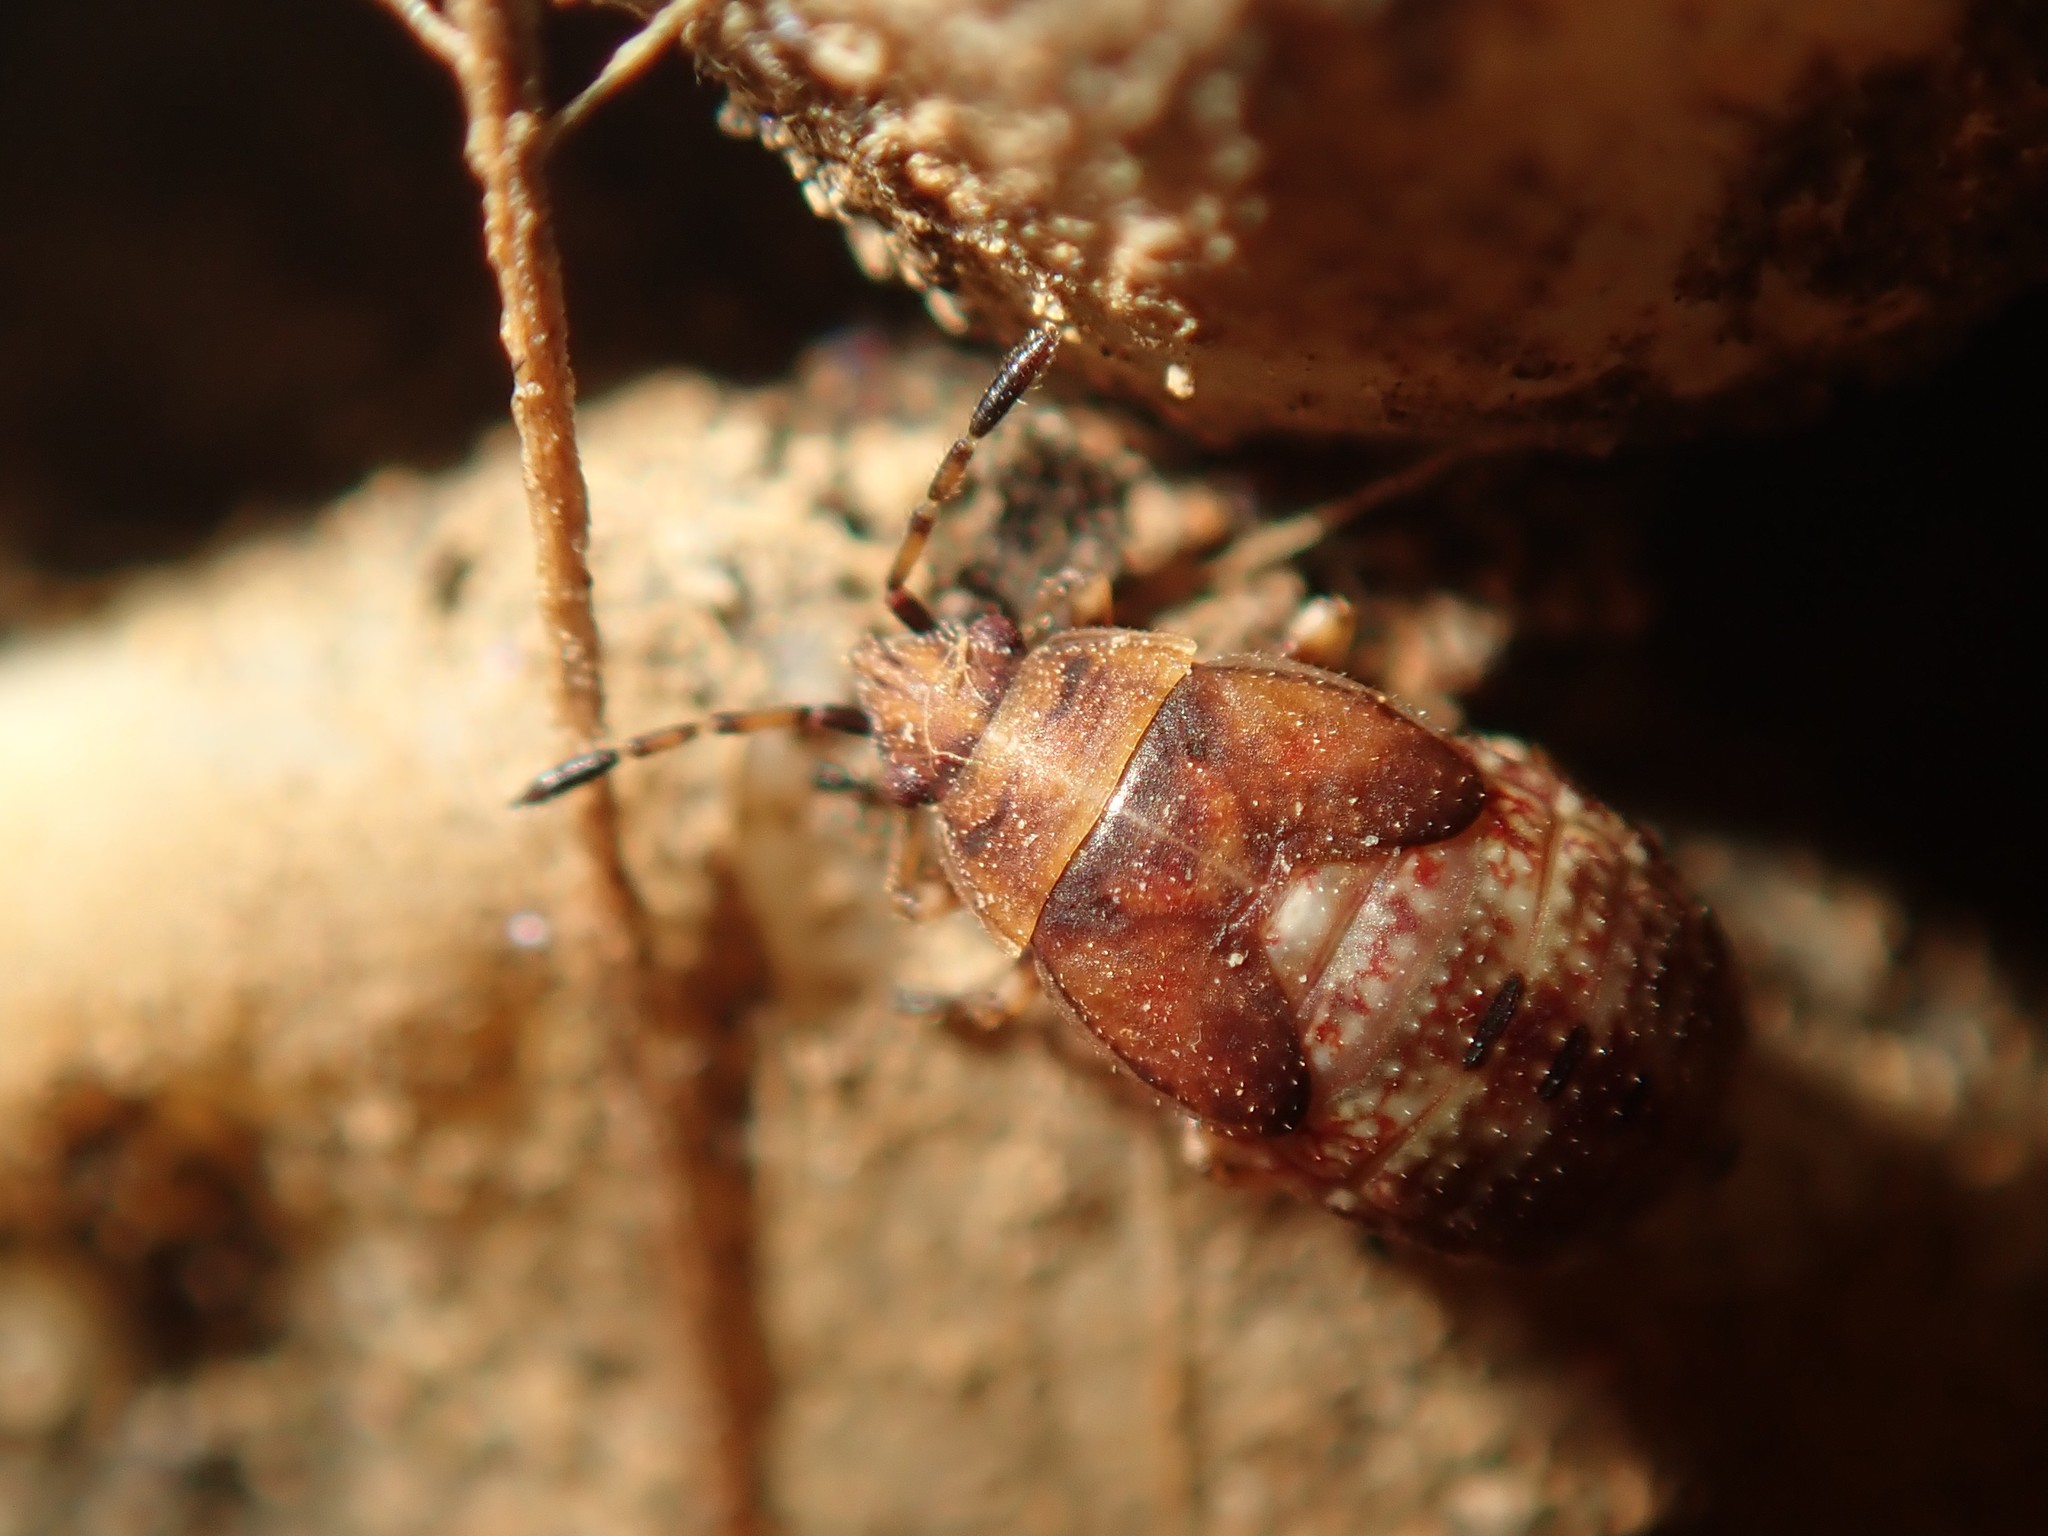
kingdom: Animalia
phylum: Arthropoda
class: Insecta
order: Hemiptera
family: Lygaeidae
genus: Kleidocerys
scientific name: Kleidocerys resedae
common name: Birch catkin bug
